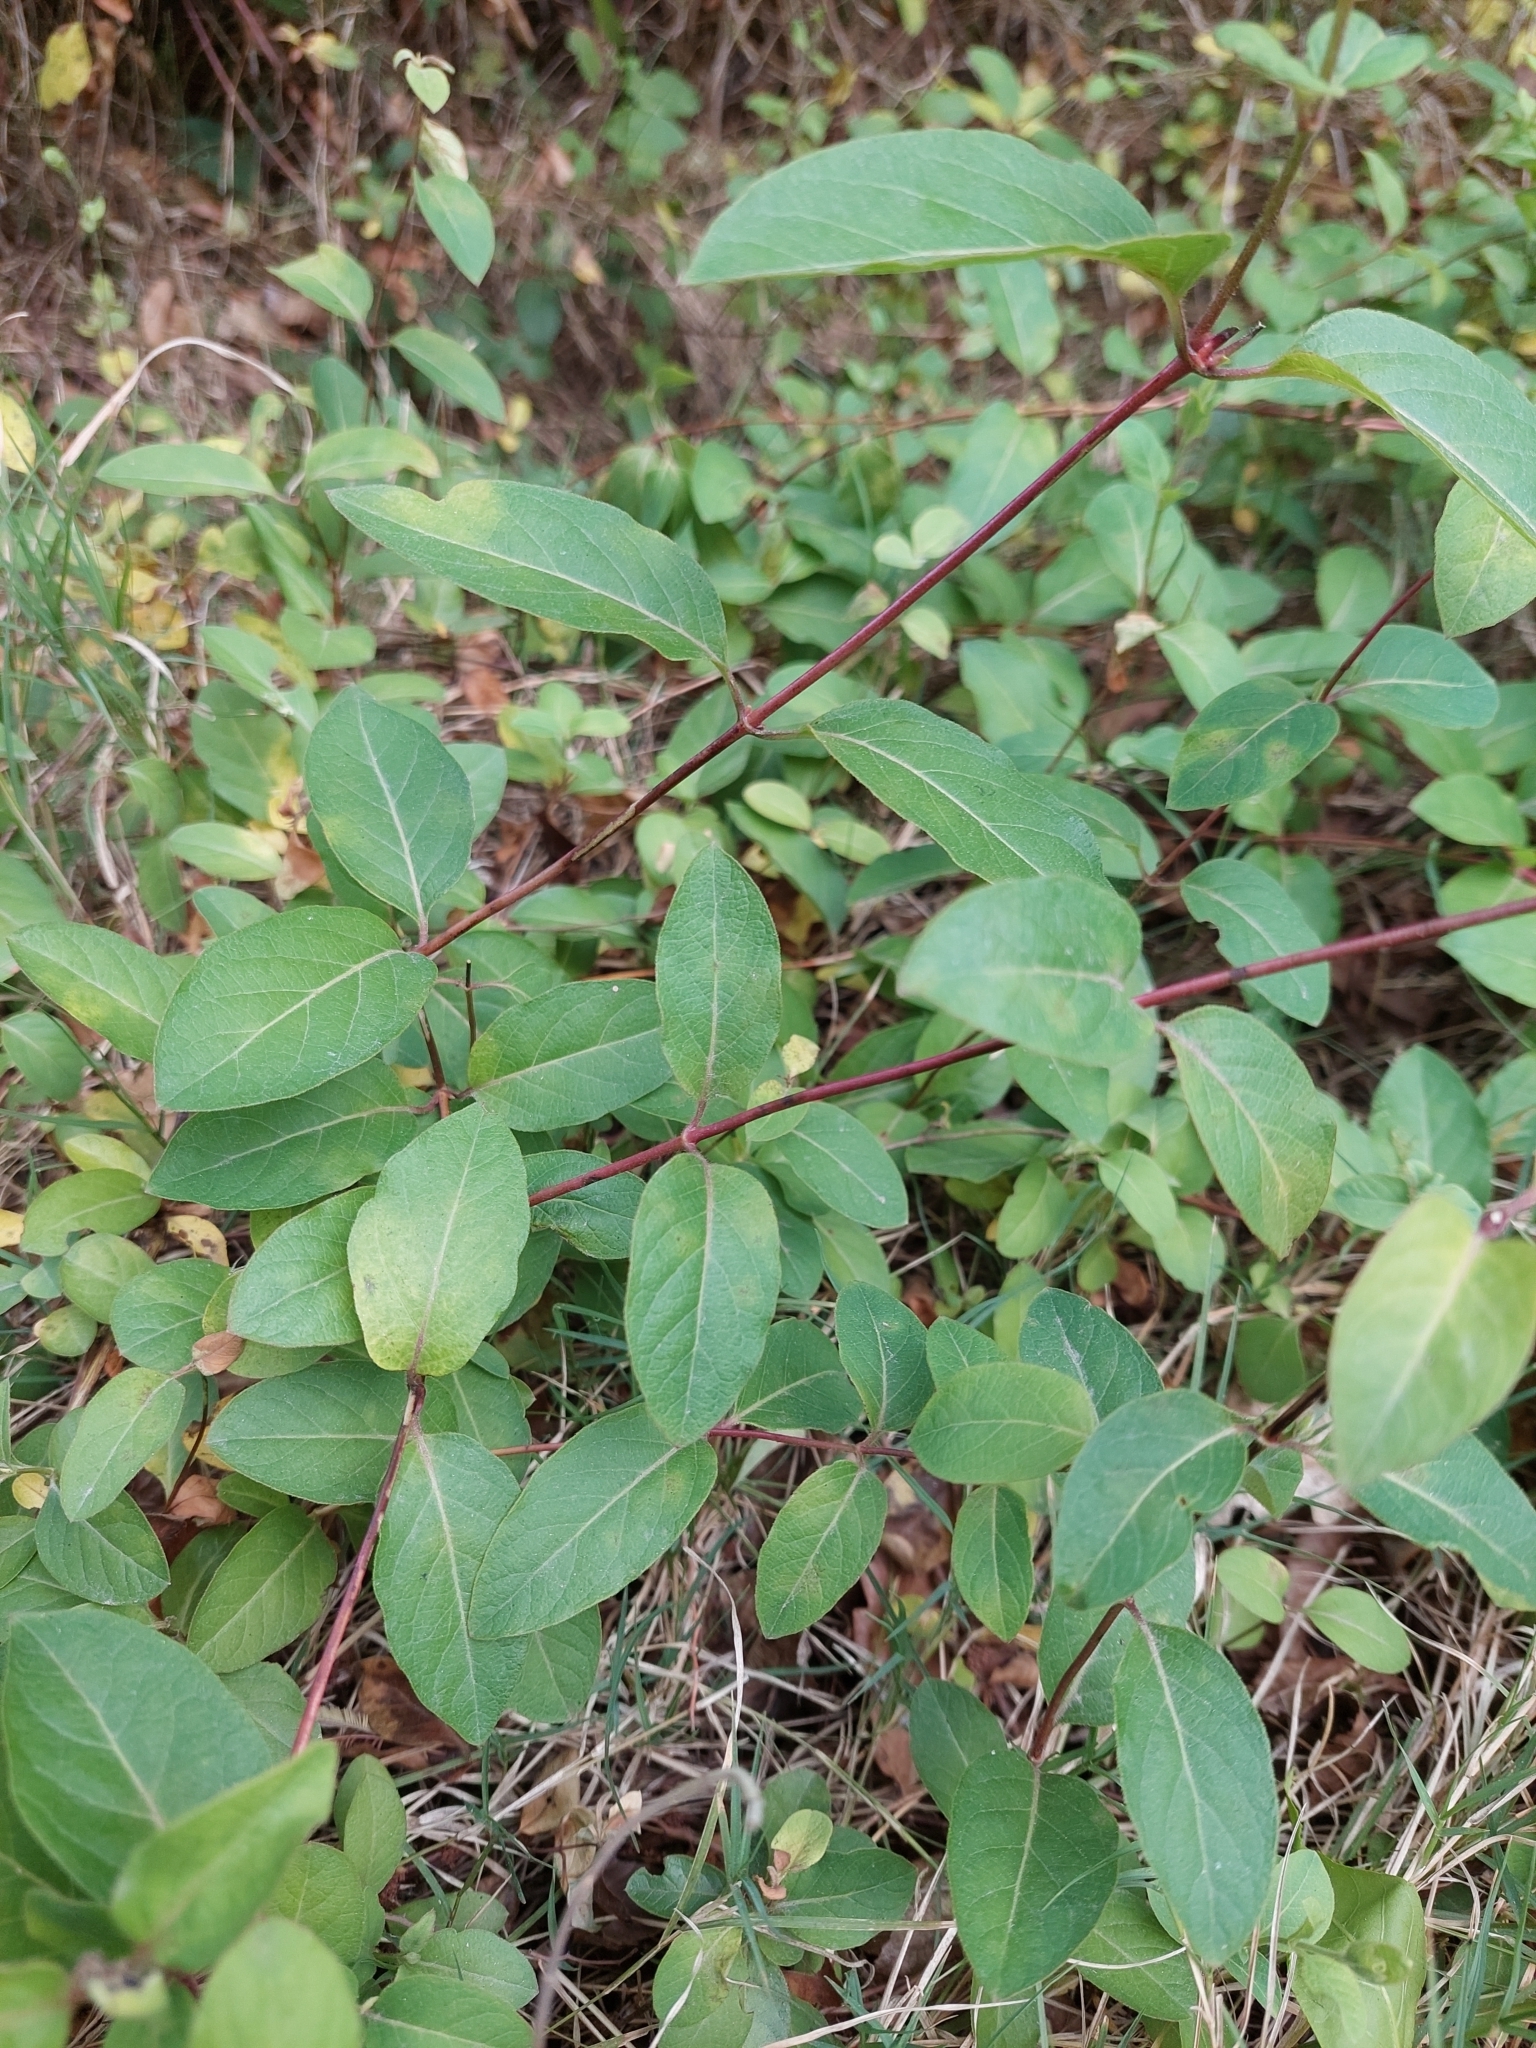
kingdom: Plantae
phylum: Tracheophyta
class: Magnoliopsida
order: Dipsacales
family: Caprifoliaceae
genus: Lonicera
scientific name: Lonicera japonica
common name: Japanese honeysuckle
